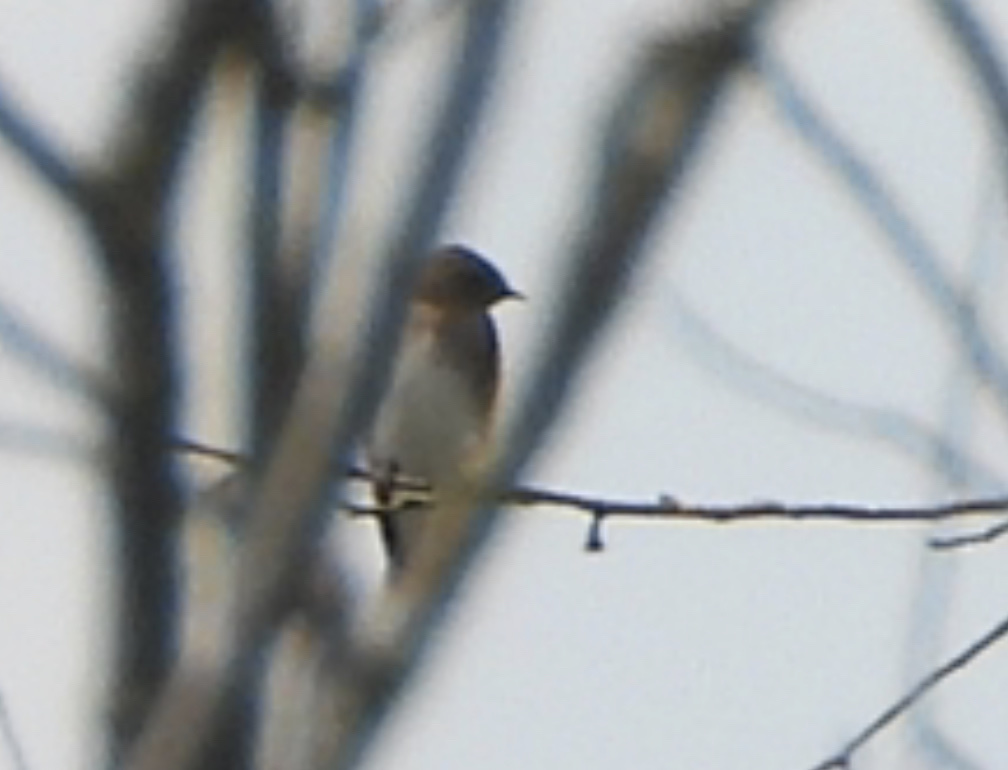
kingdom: Animalia
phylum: Chordata
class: Aves
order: Passeriformes
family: Hirundinidae
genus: Stelgidopteryx
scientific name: Stelgidopteryx serripennis
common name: Northern rough-winged swallow
